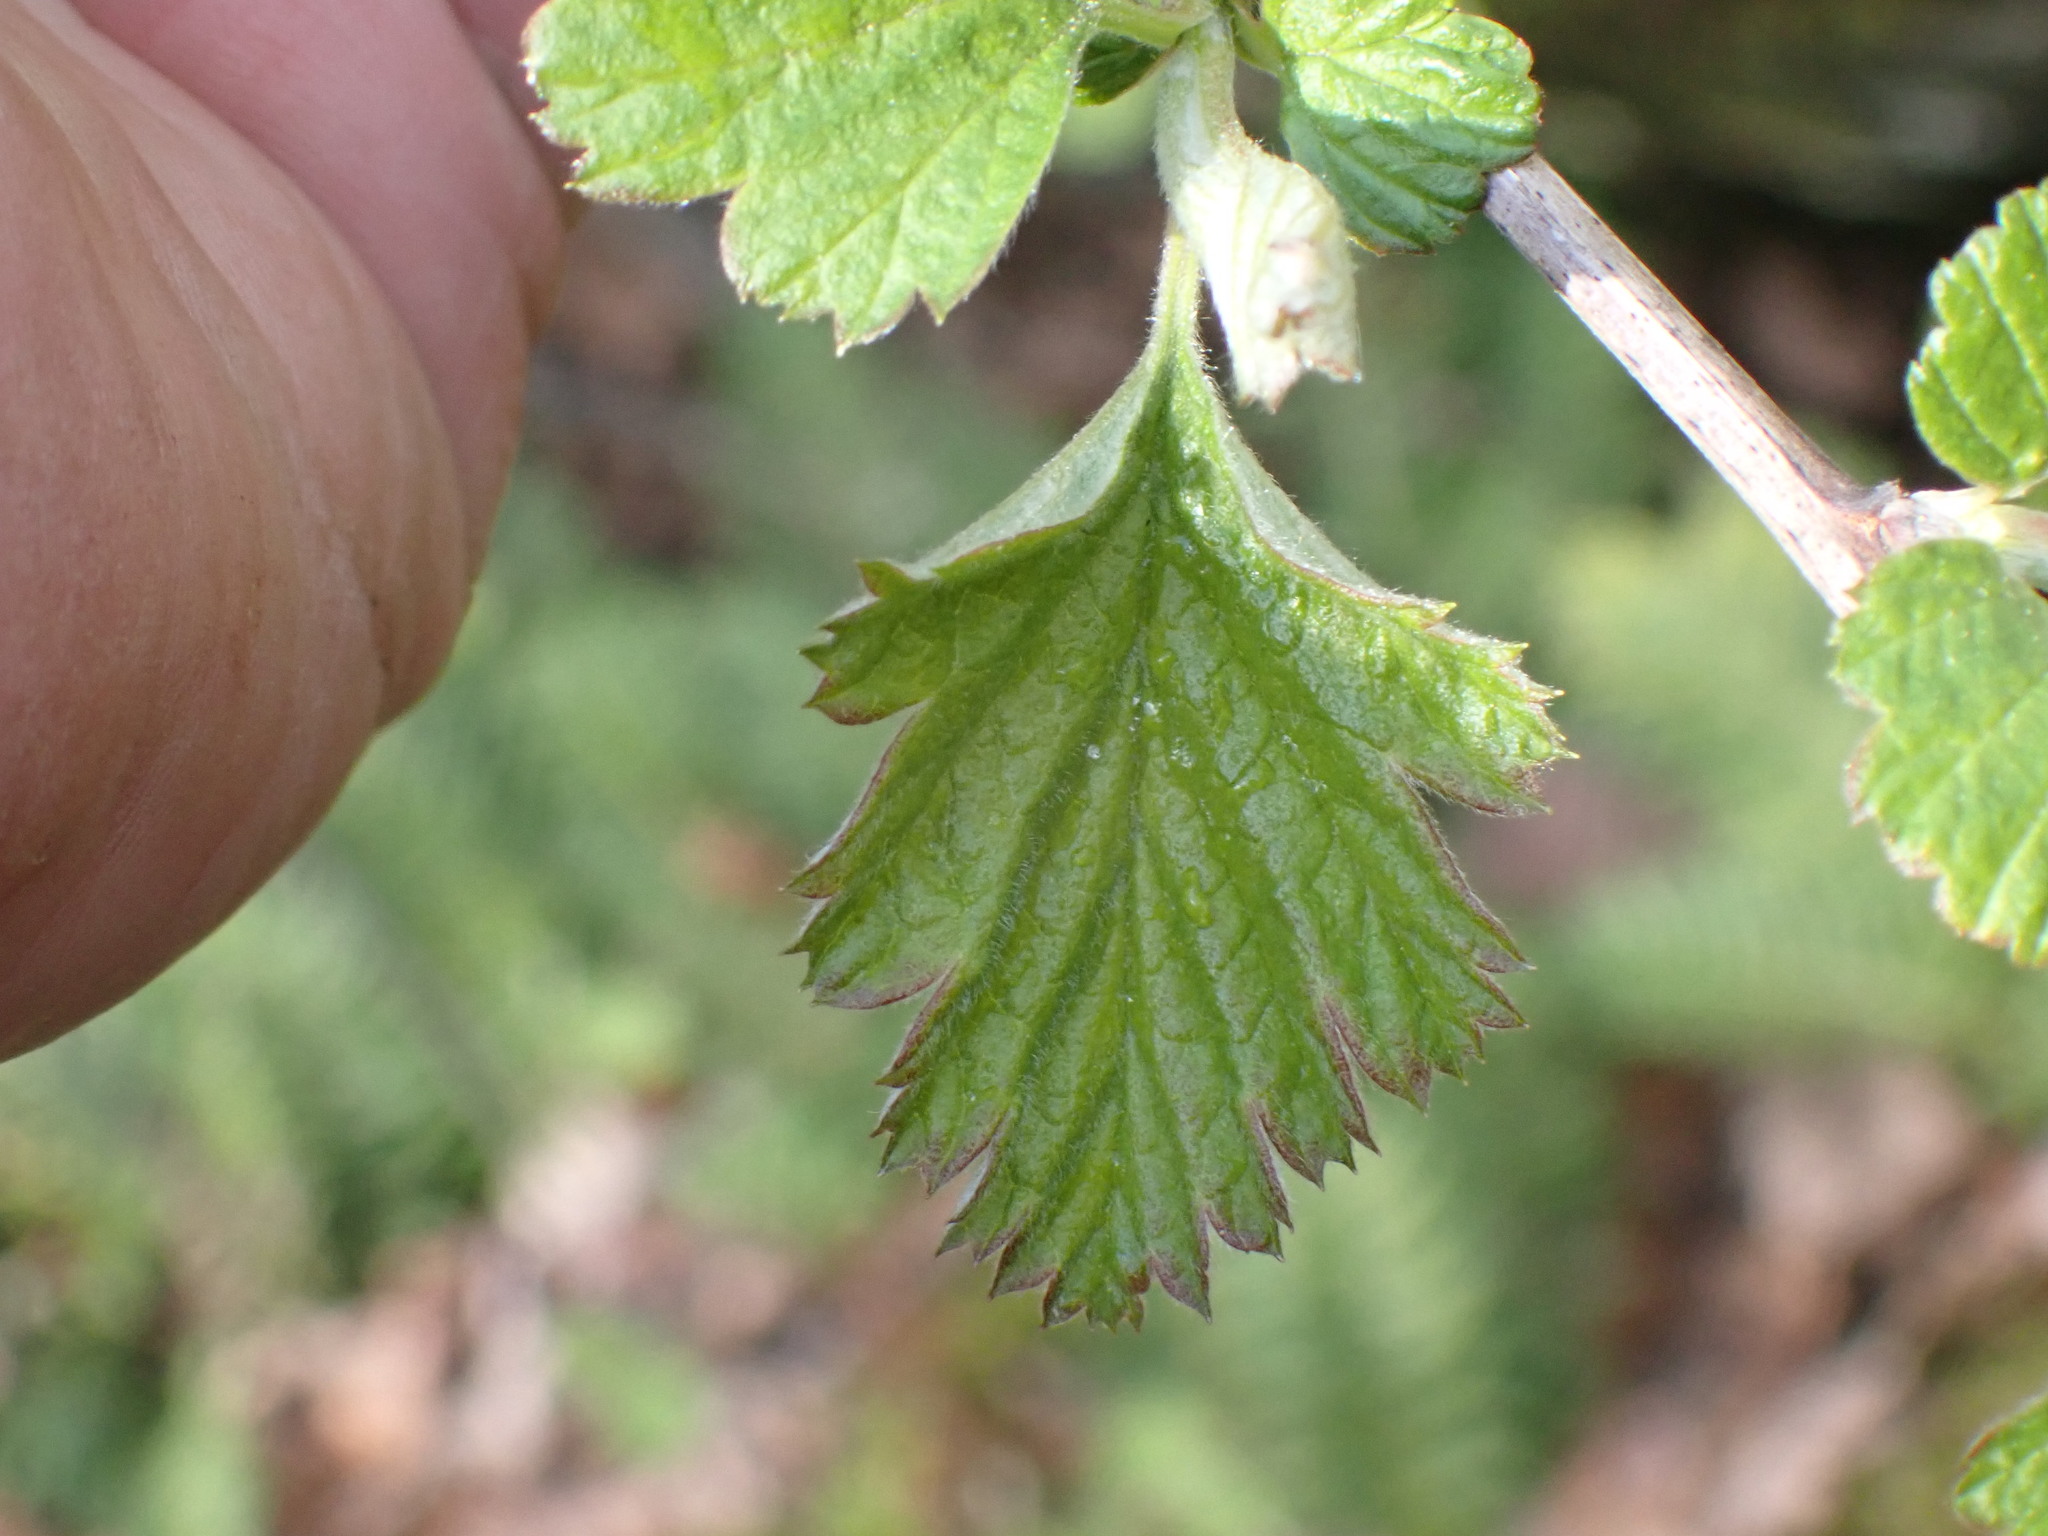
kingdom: Plantae
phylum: Tracheophyta
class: Magnoliopsida
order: Rosales
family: Rosaceae
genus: Holodiscus
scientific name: Holodiscus discolor
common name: Oceanspray
